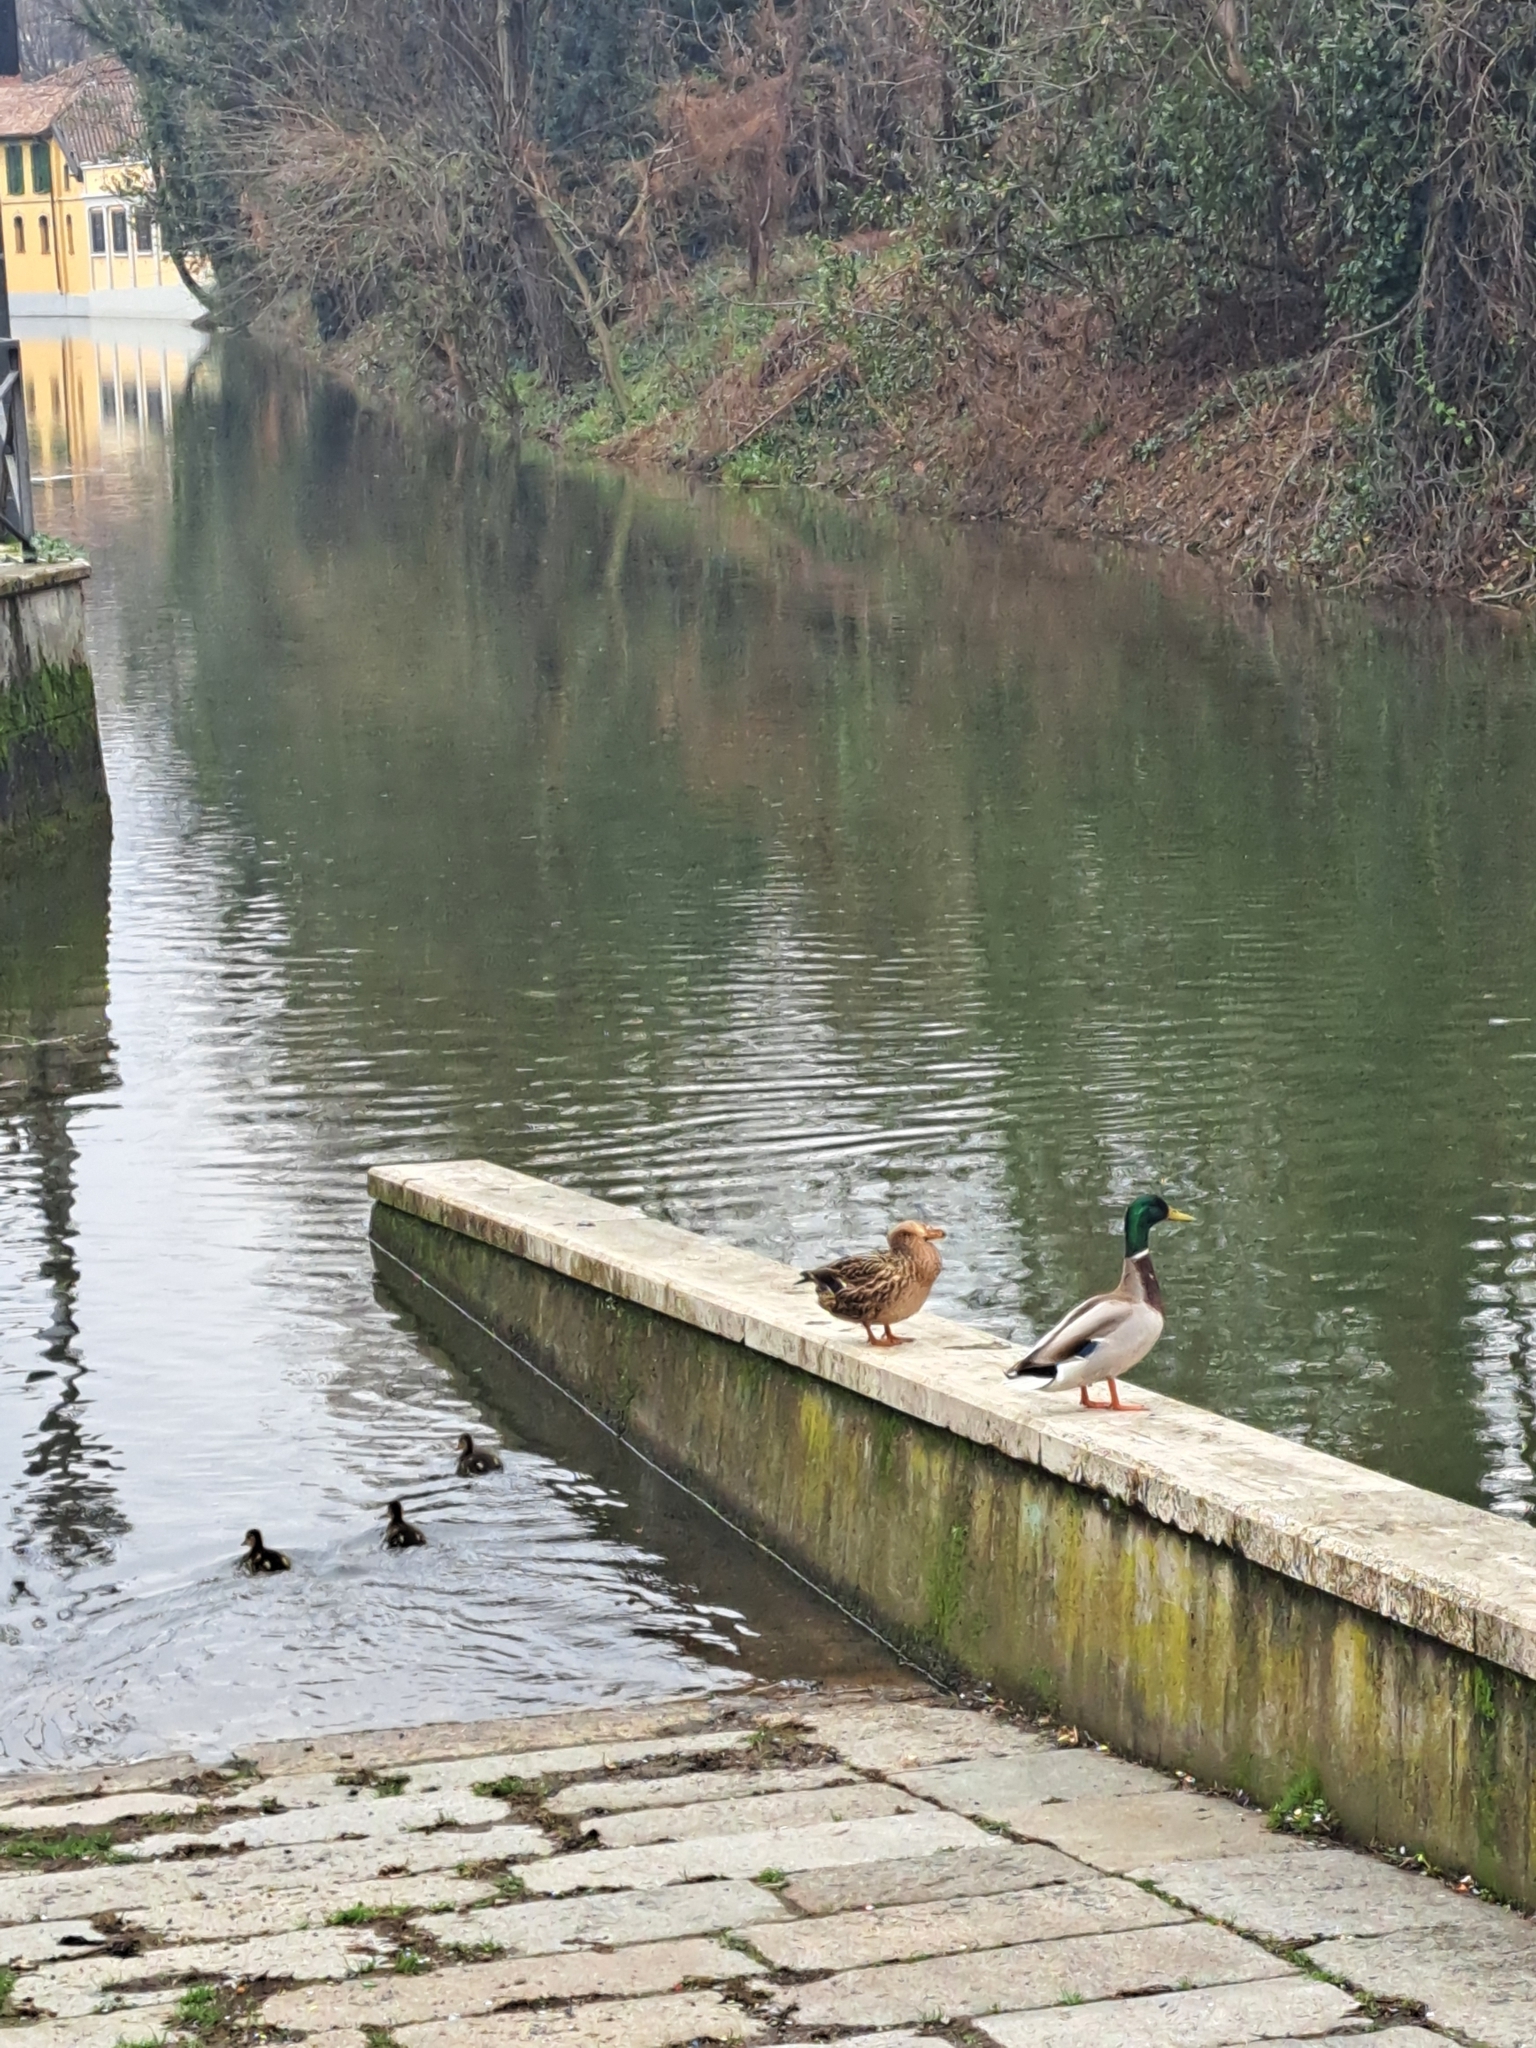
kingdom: Animalia
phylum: Chordata
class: Aves
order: Anseriformes
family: Anatidae
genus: Anas
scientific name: Anas platyrhynchos
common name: Mallard
